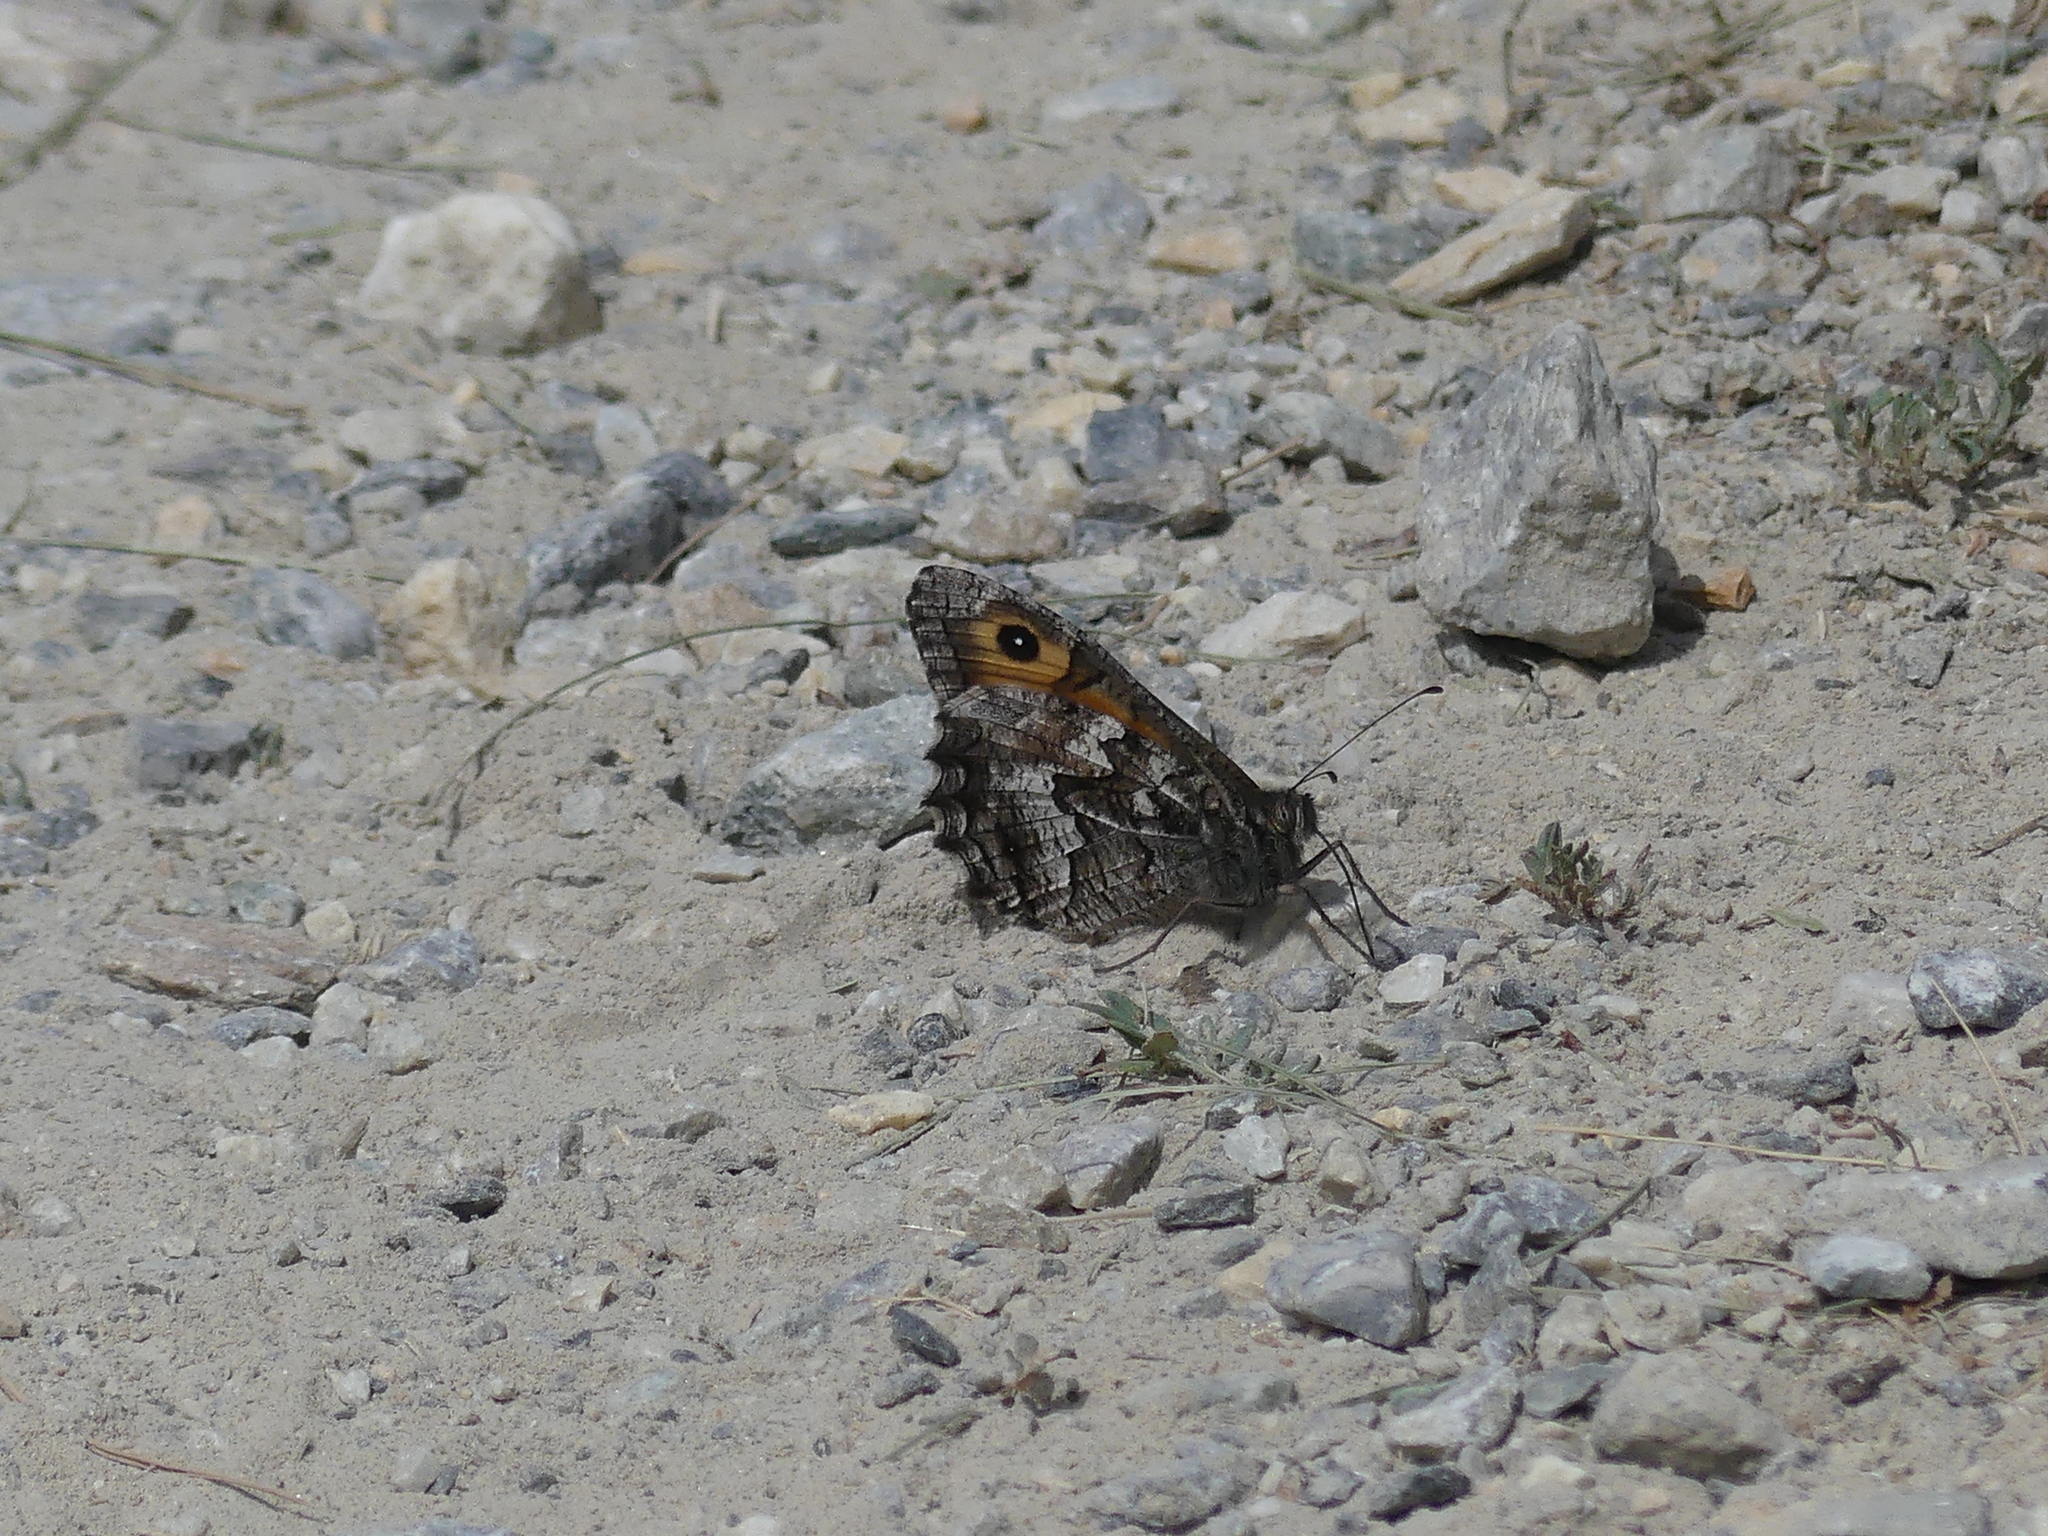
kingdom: Animalia
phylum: Arthropoda
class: Insecta
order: Lepidoptera
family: Nymphalidae
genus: Hipparchia
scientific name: Hipparchia semele
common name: Grayling
